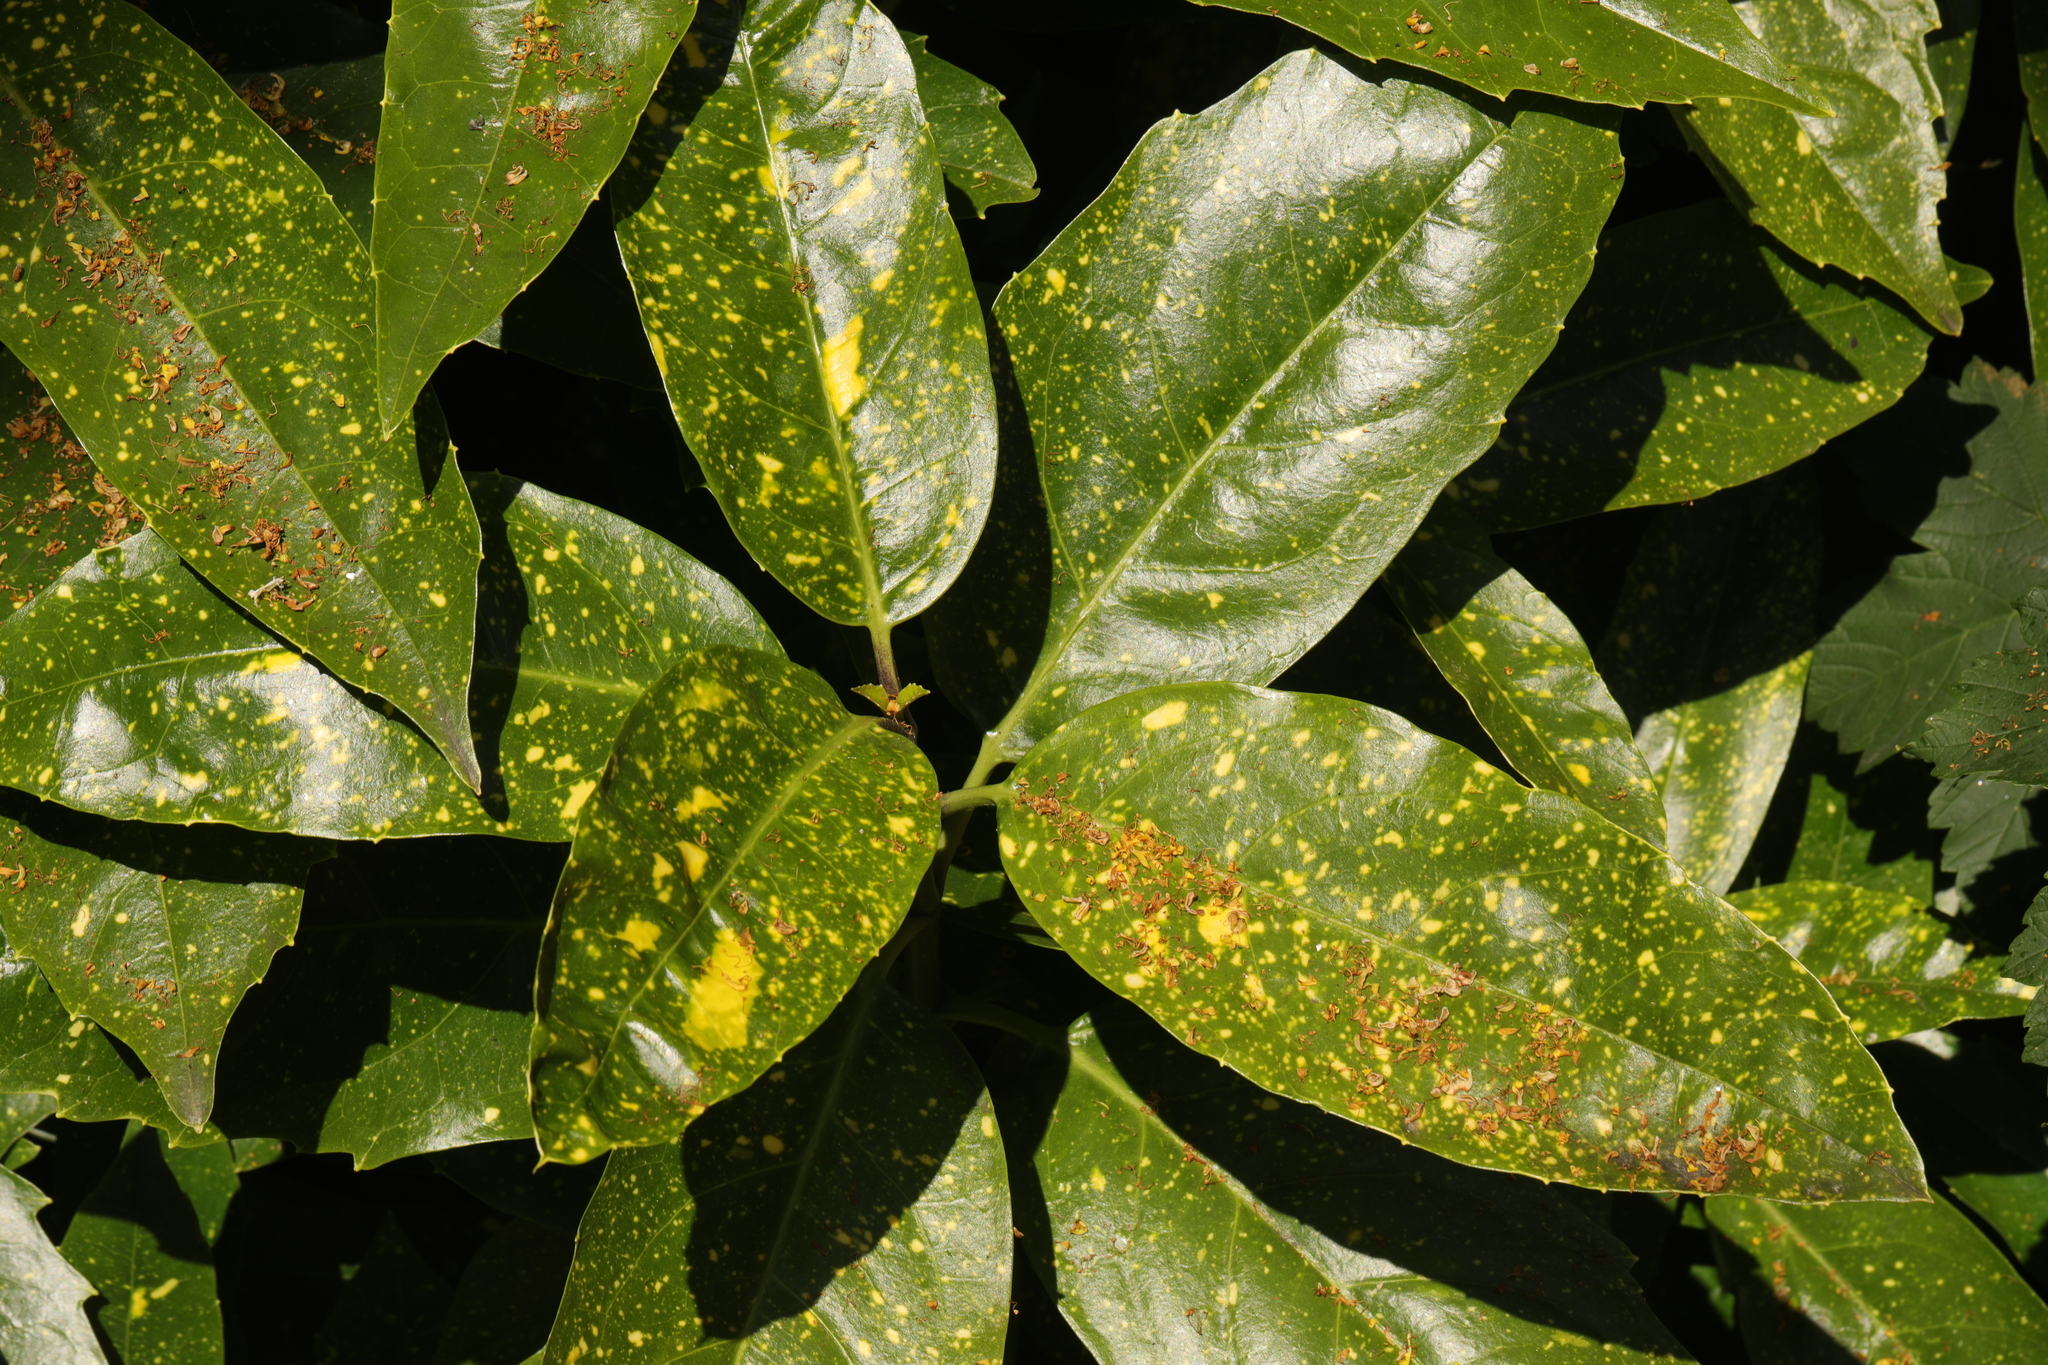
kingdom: Plantae
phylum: Tracheophyta
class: Magnoliopsida
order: Garryales
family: Garryaceae
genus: Aucuba
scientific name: Aucuba japonica
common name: Spotted-laurel
